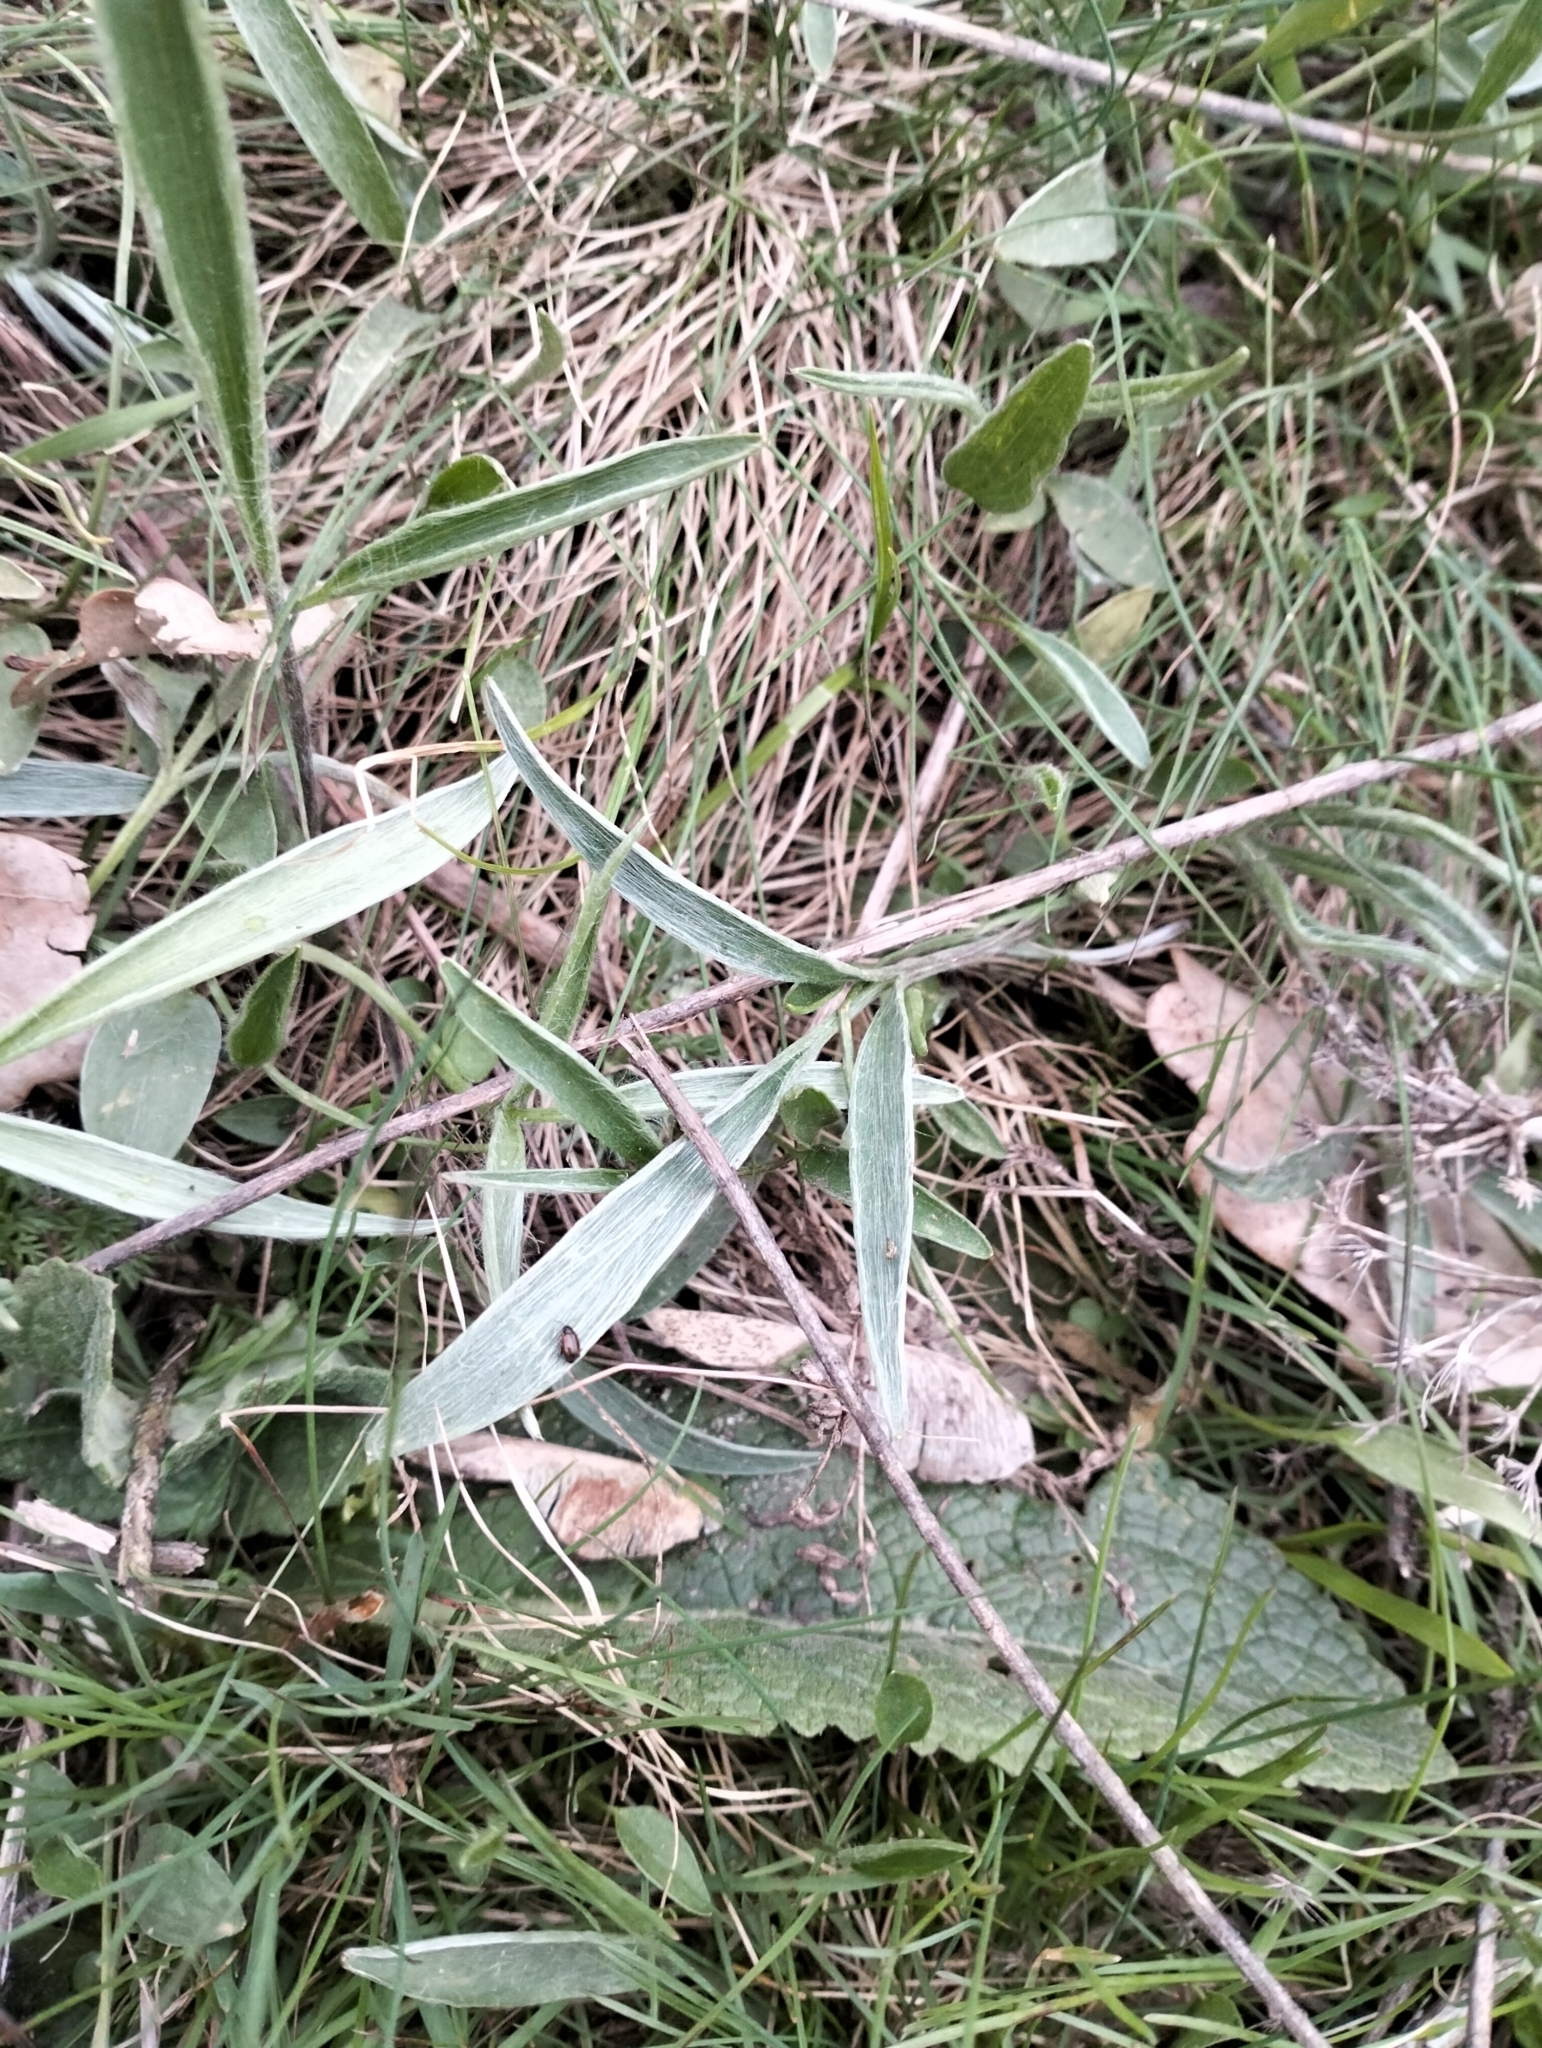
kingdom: Plantae
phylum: Tracheophyta
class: Magnoliopsida
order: Ranunculales
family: Ranunculaceae
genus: Ranunculus
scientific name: Ranunculus illyricus
